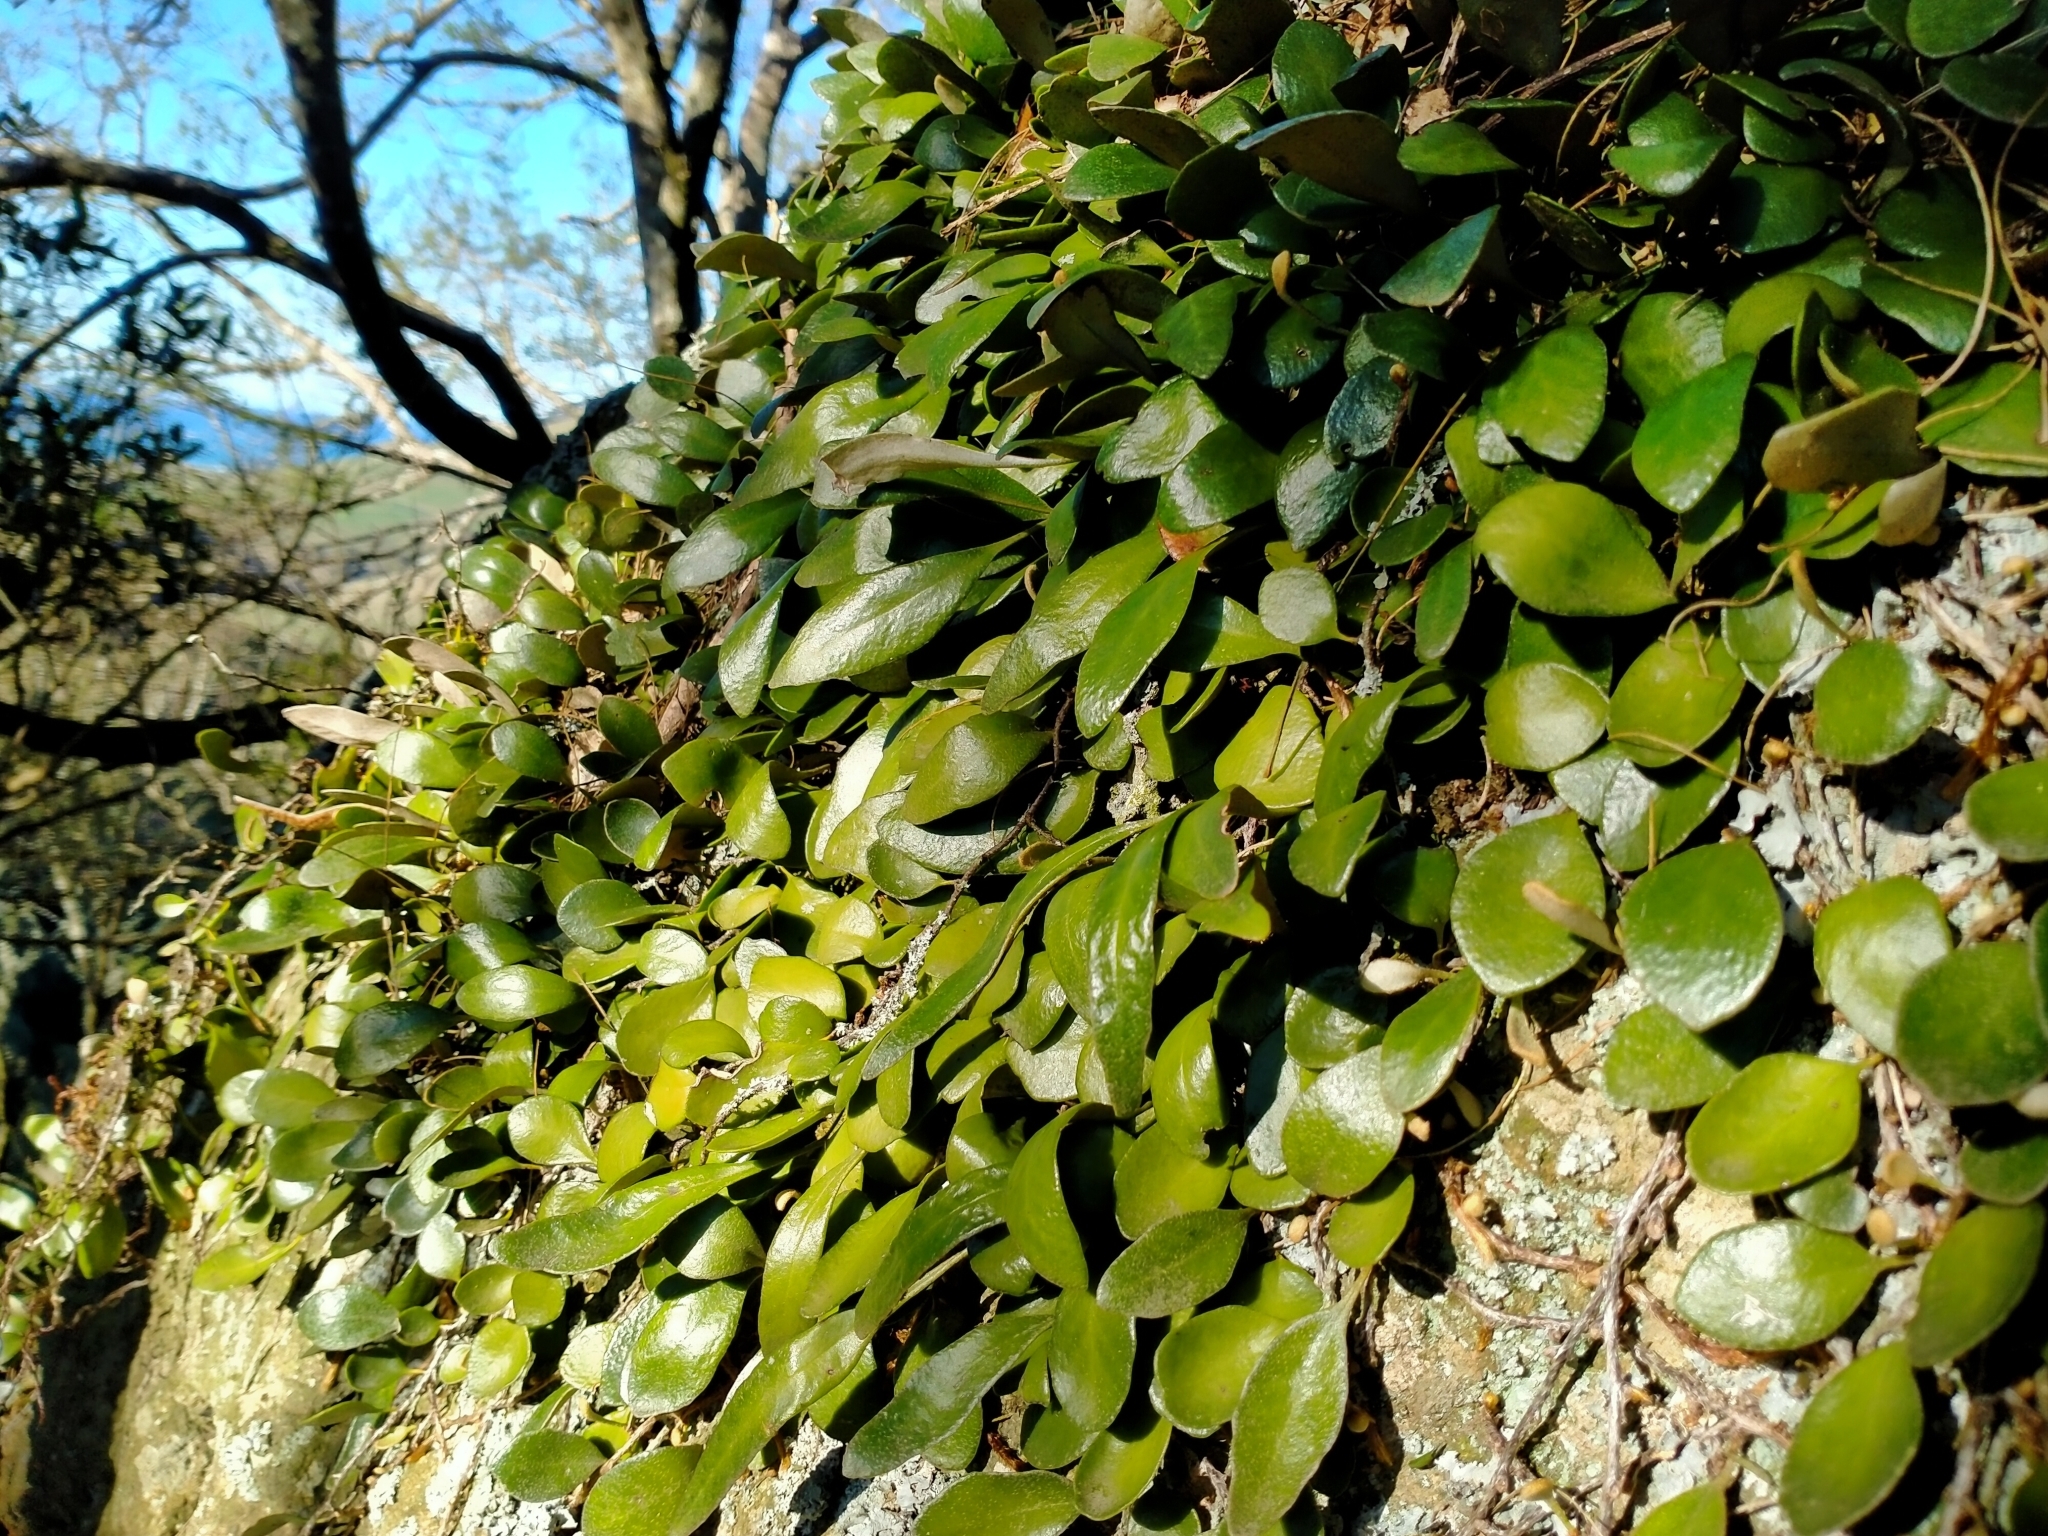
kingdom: Plantae
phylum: Tracheophyta
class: Polypodiopsida
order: Polypodiales
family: Polypodiaceae
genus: Pyrrosia
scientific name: Pyrrosia eleagnifolia
